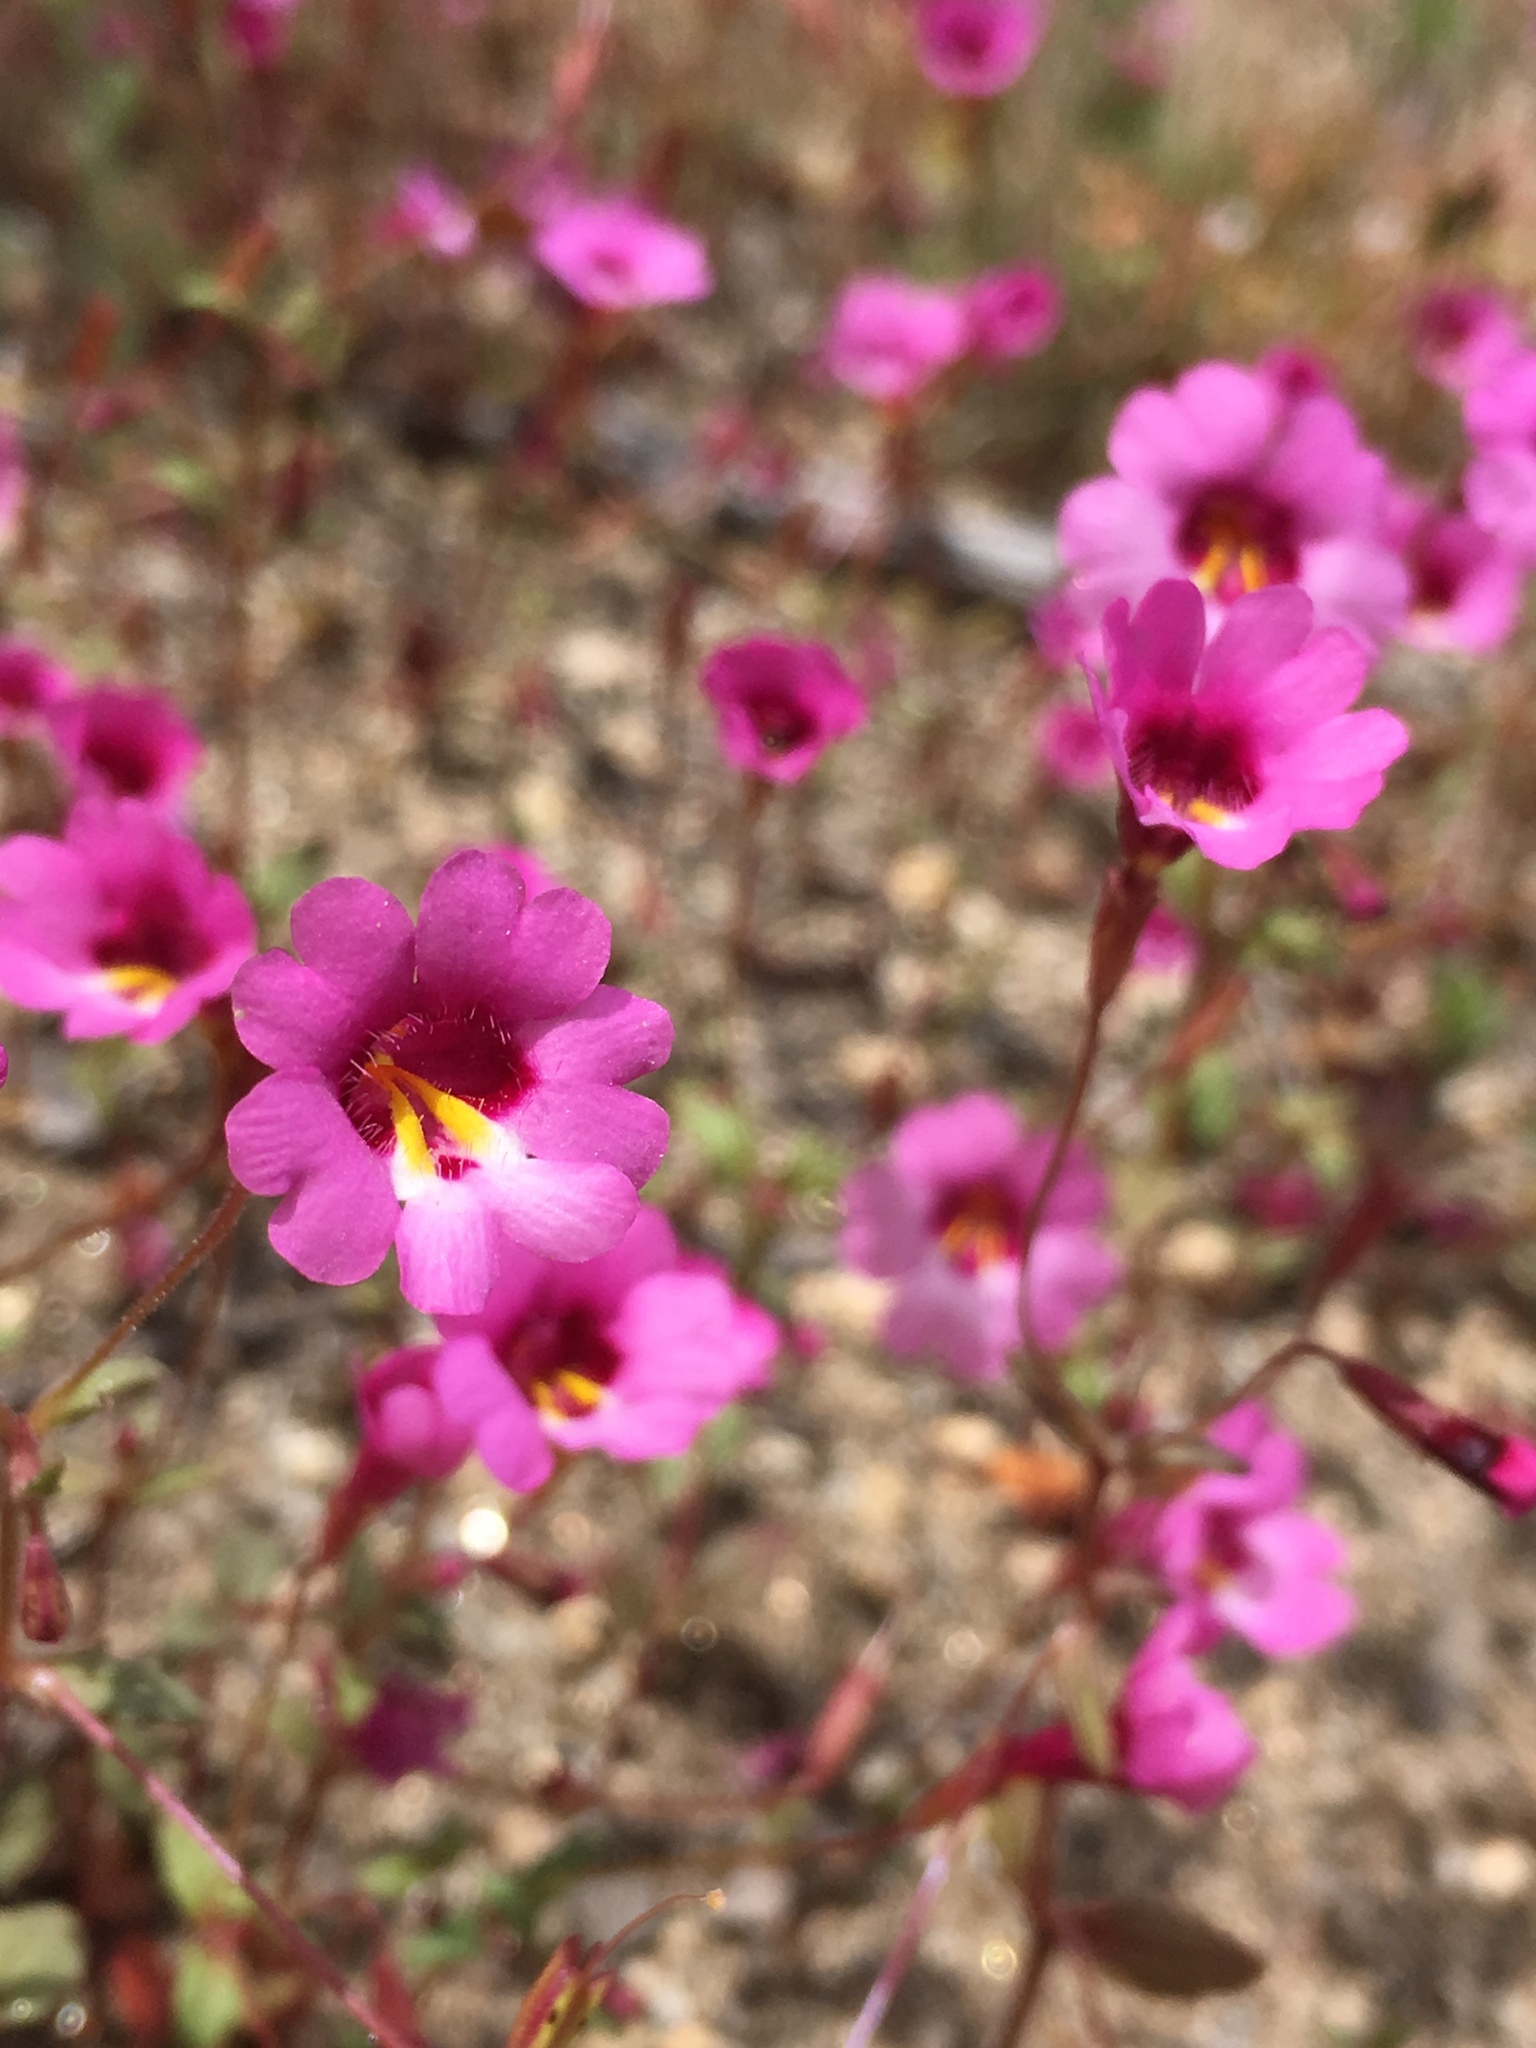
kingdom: Plantae
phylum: Tracheophyta
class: Magnoliopsida
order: Lamiales
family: Phrymaceae
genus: Erythranthe
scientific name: Erythranthe diffusa
